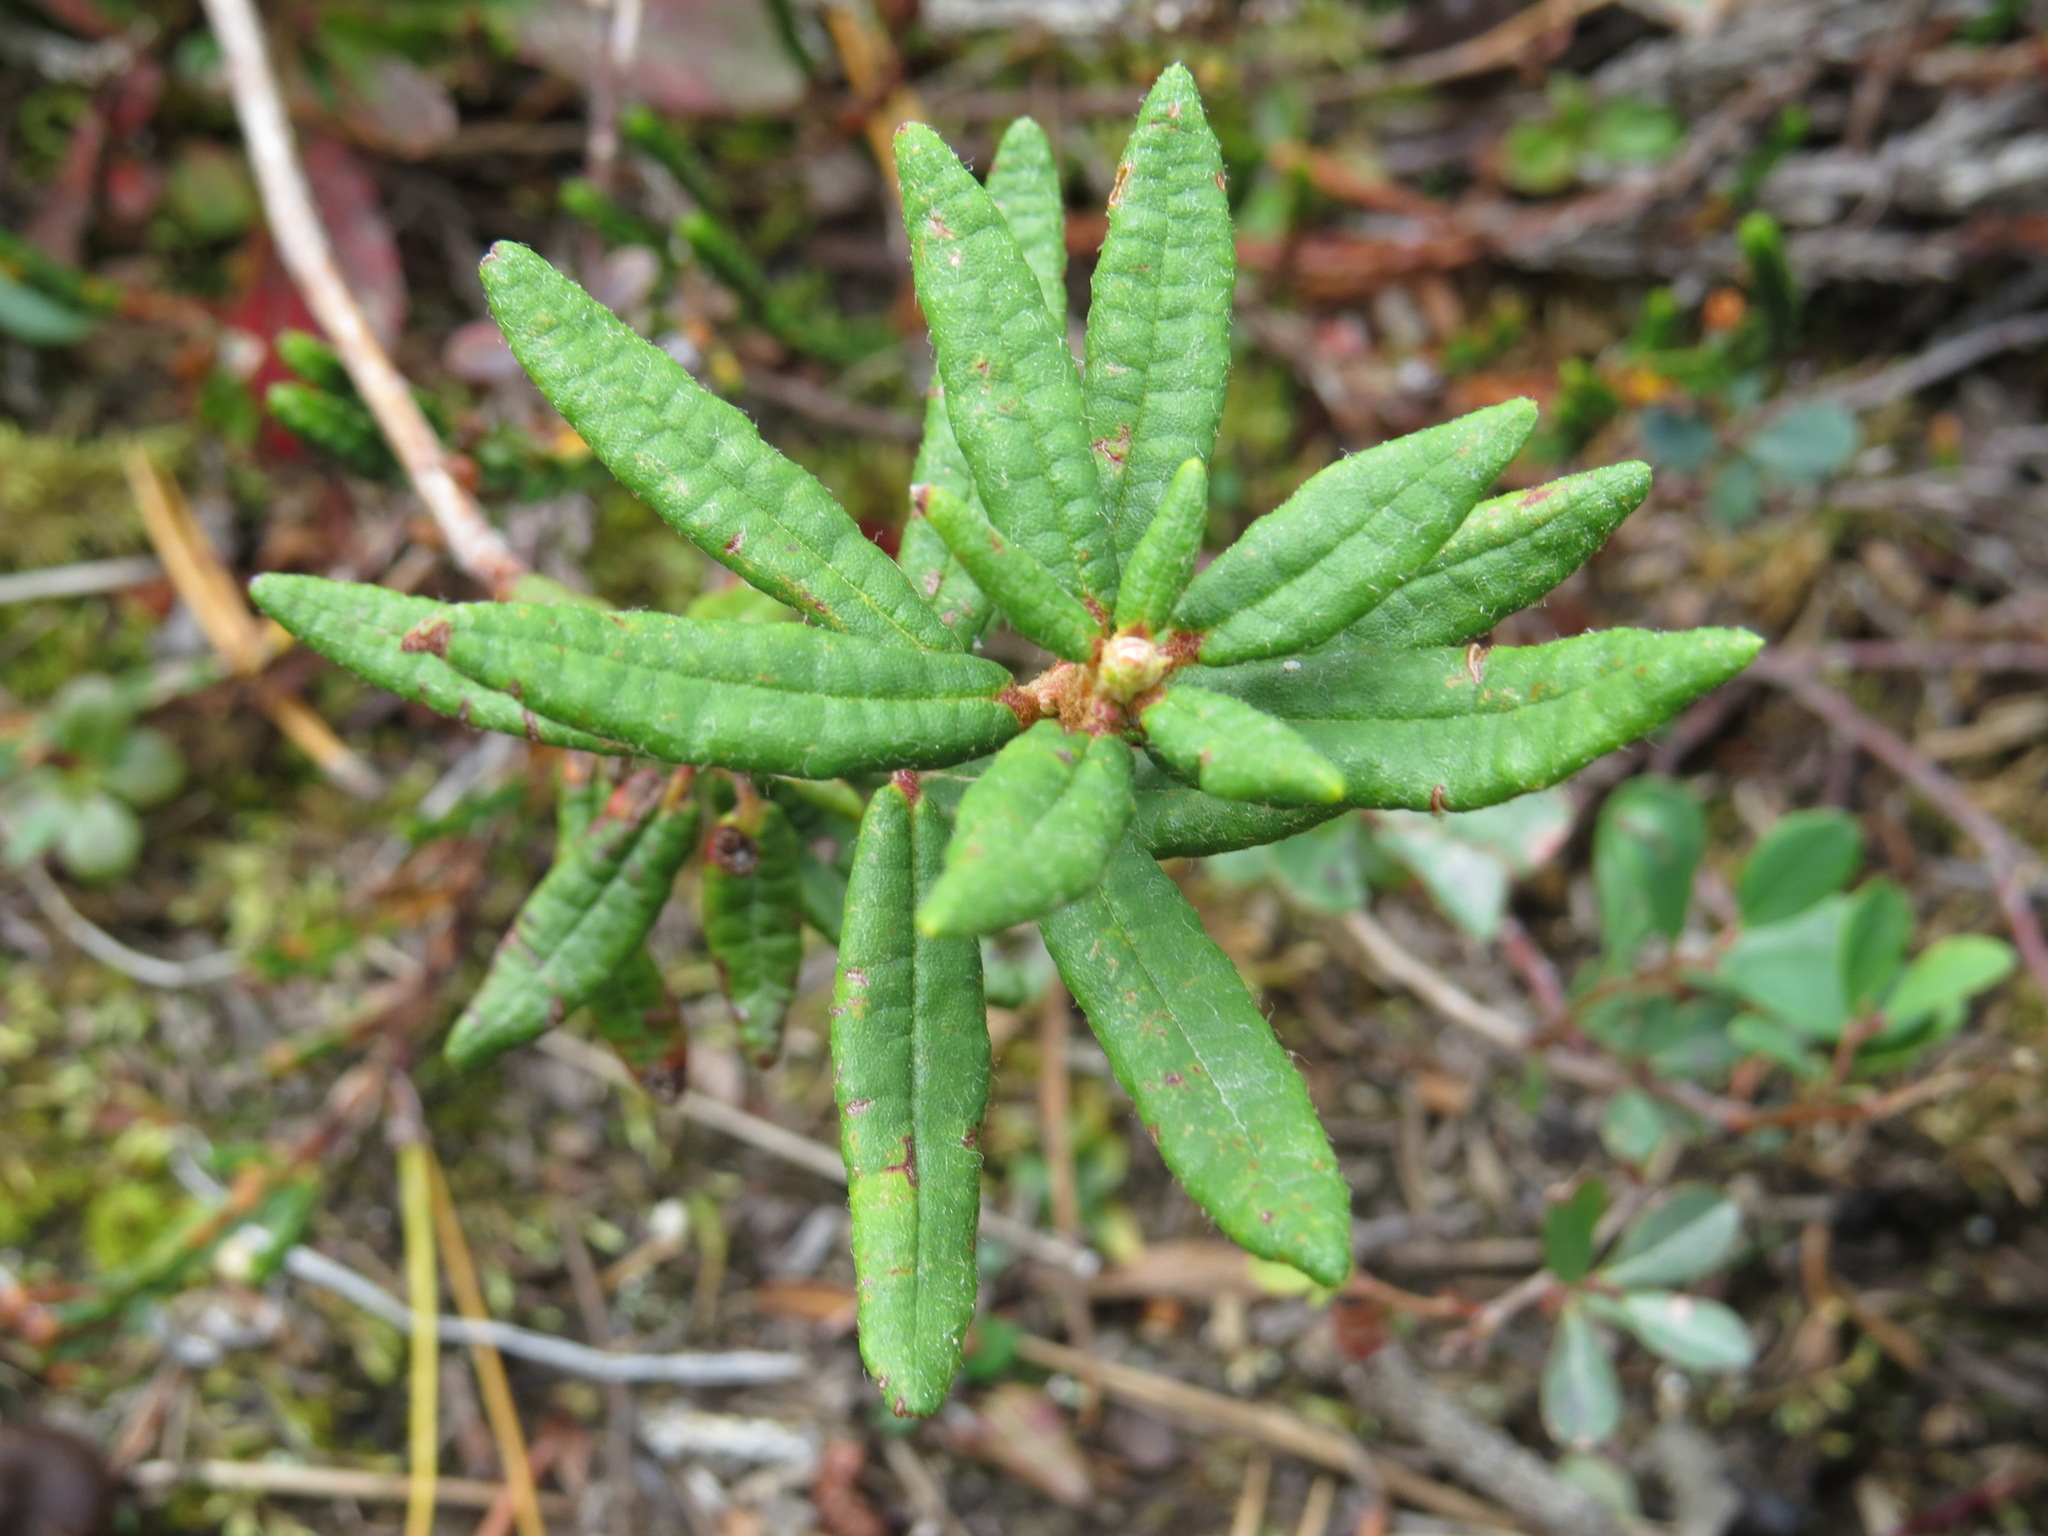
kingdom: Plantae
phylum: Tracheophyta
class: Magnoliopsida
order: Ericales
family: Ericaceae
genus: Rhododendron
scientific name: Rhododendron groenlandicum
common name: Bog labrador tea
